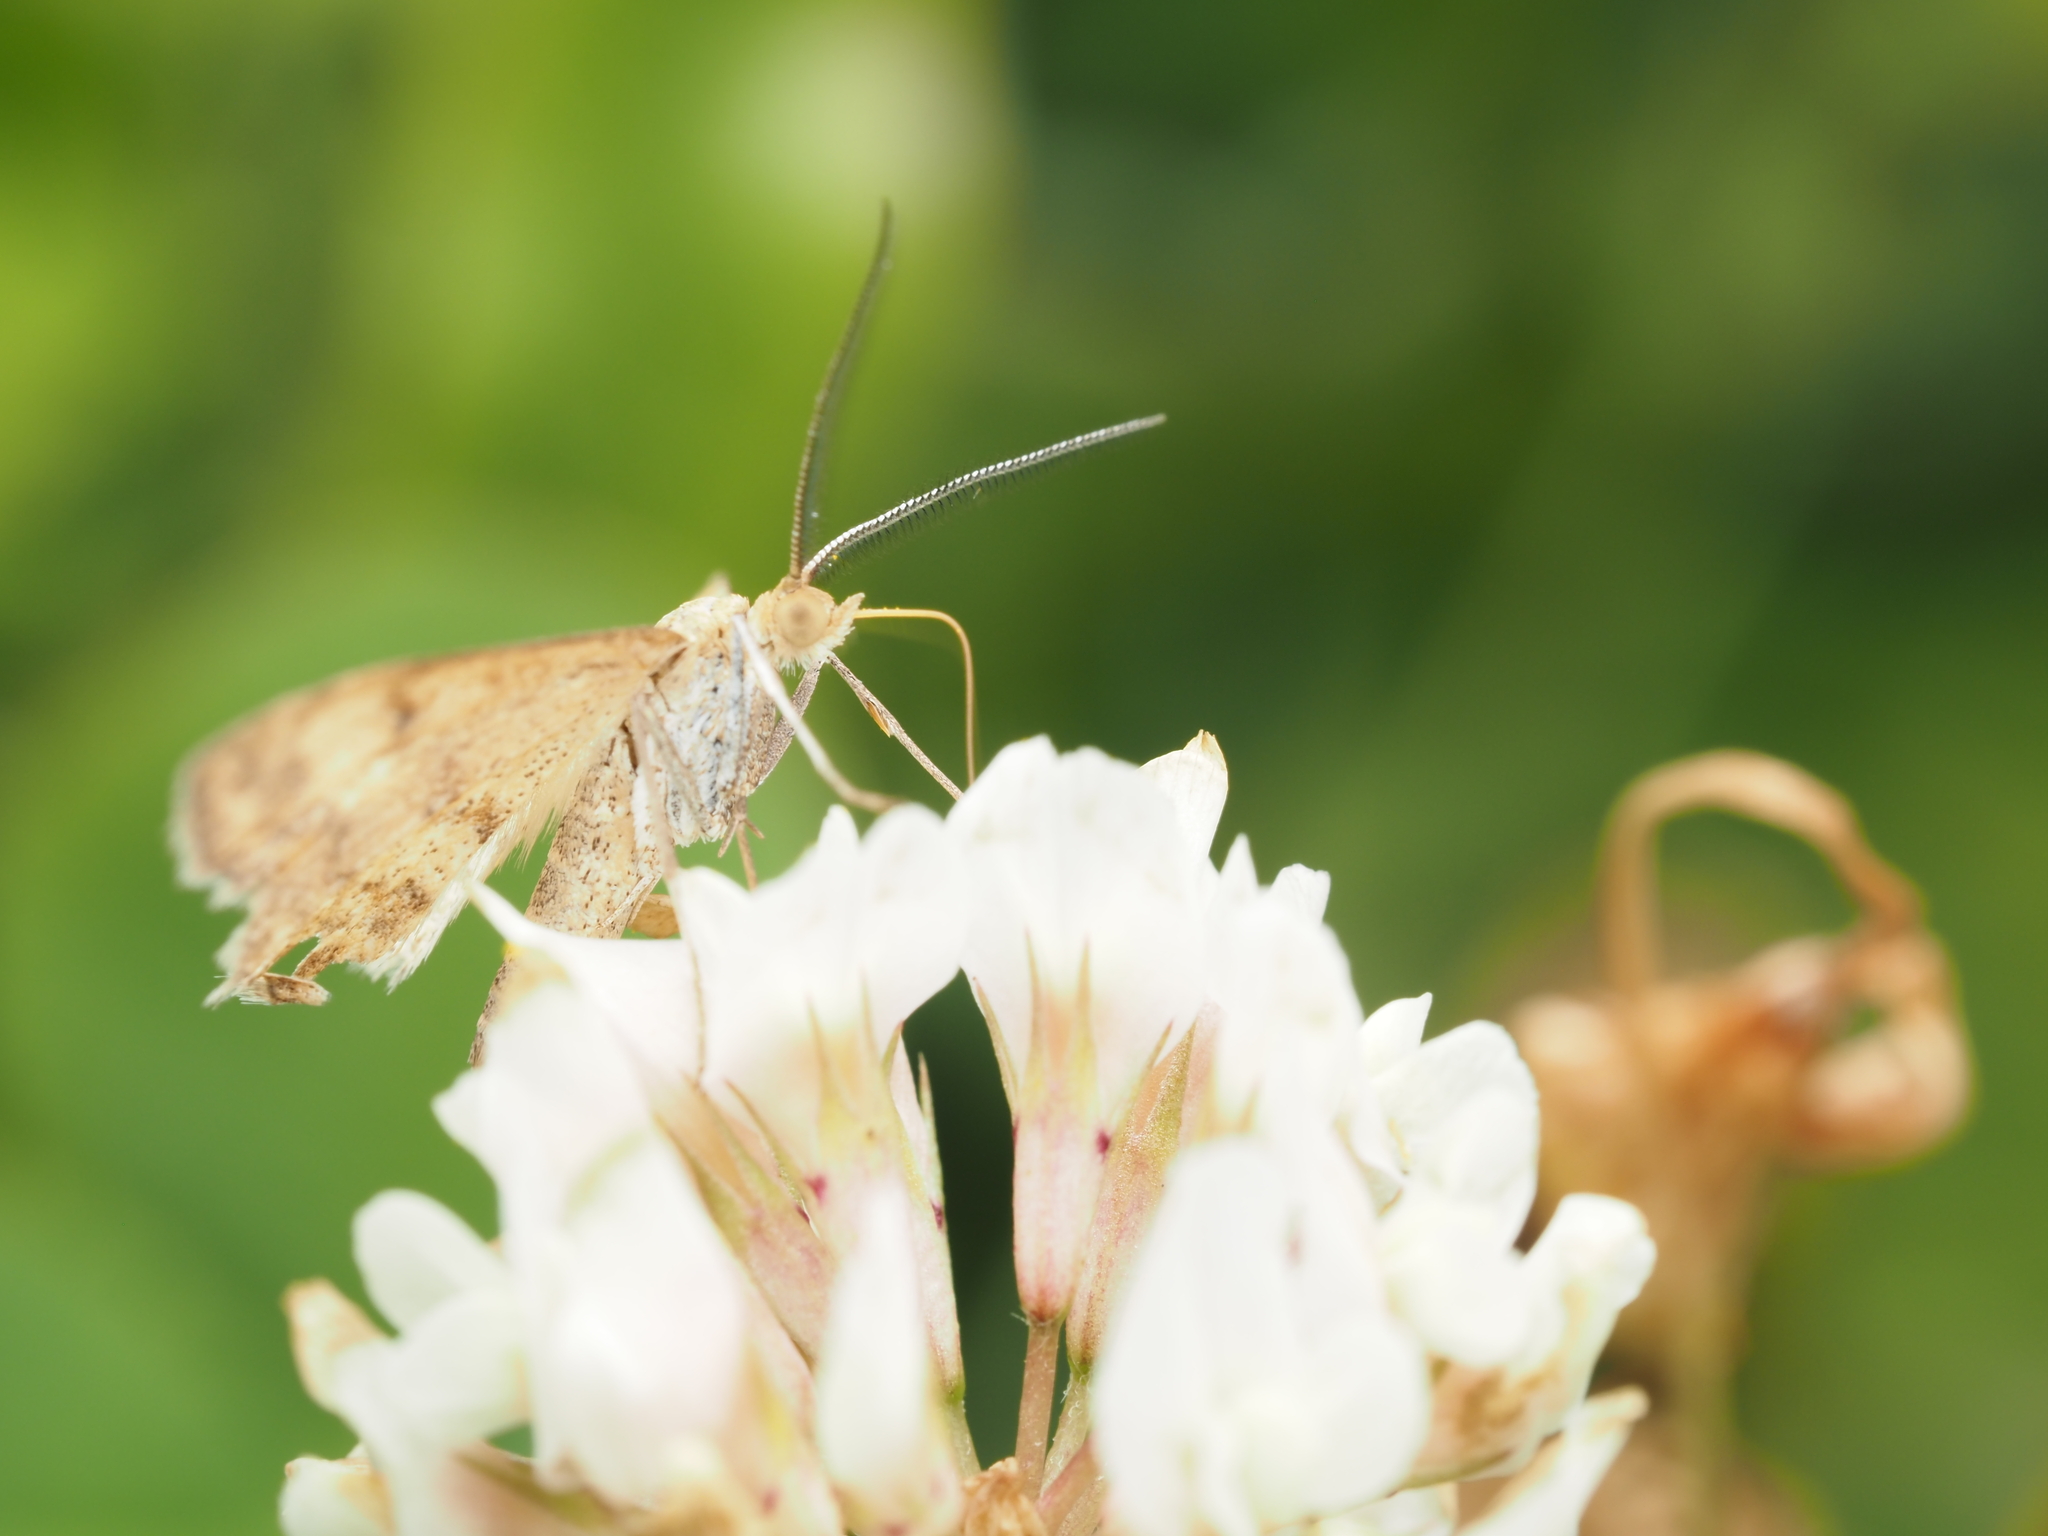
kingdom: Animalia
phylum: Arthropoda
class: Insecta
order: Lepidoptera
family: Geometridae
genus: Scopula
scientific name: Scopula rubraria
